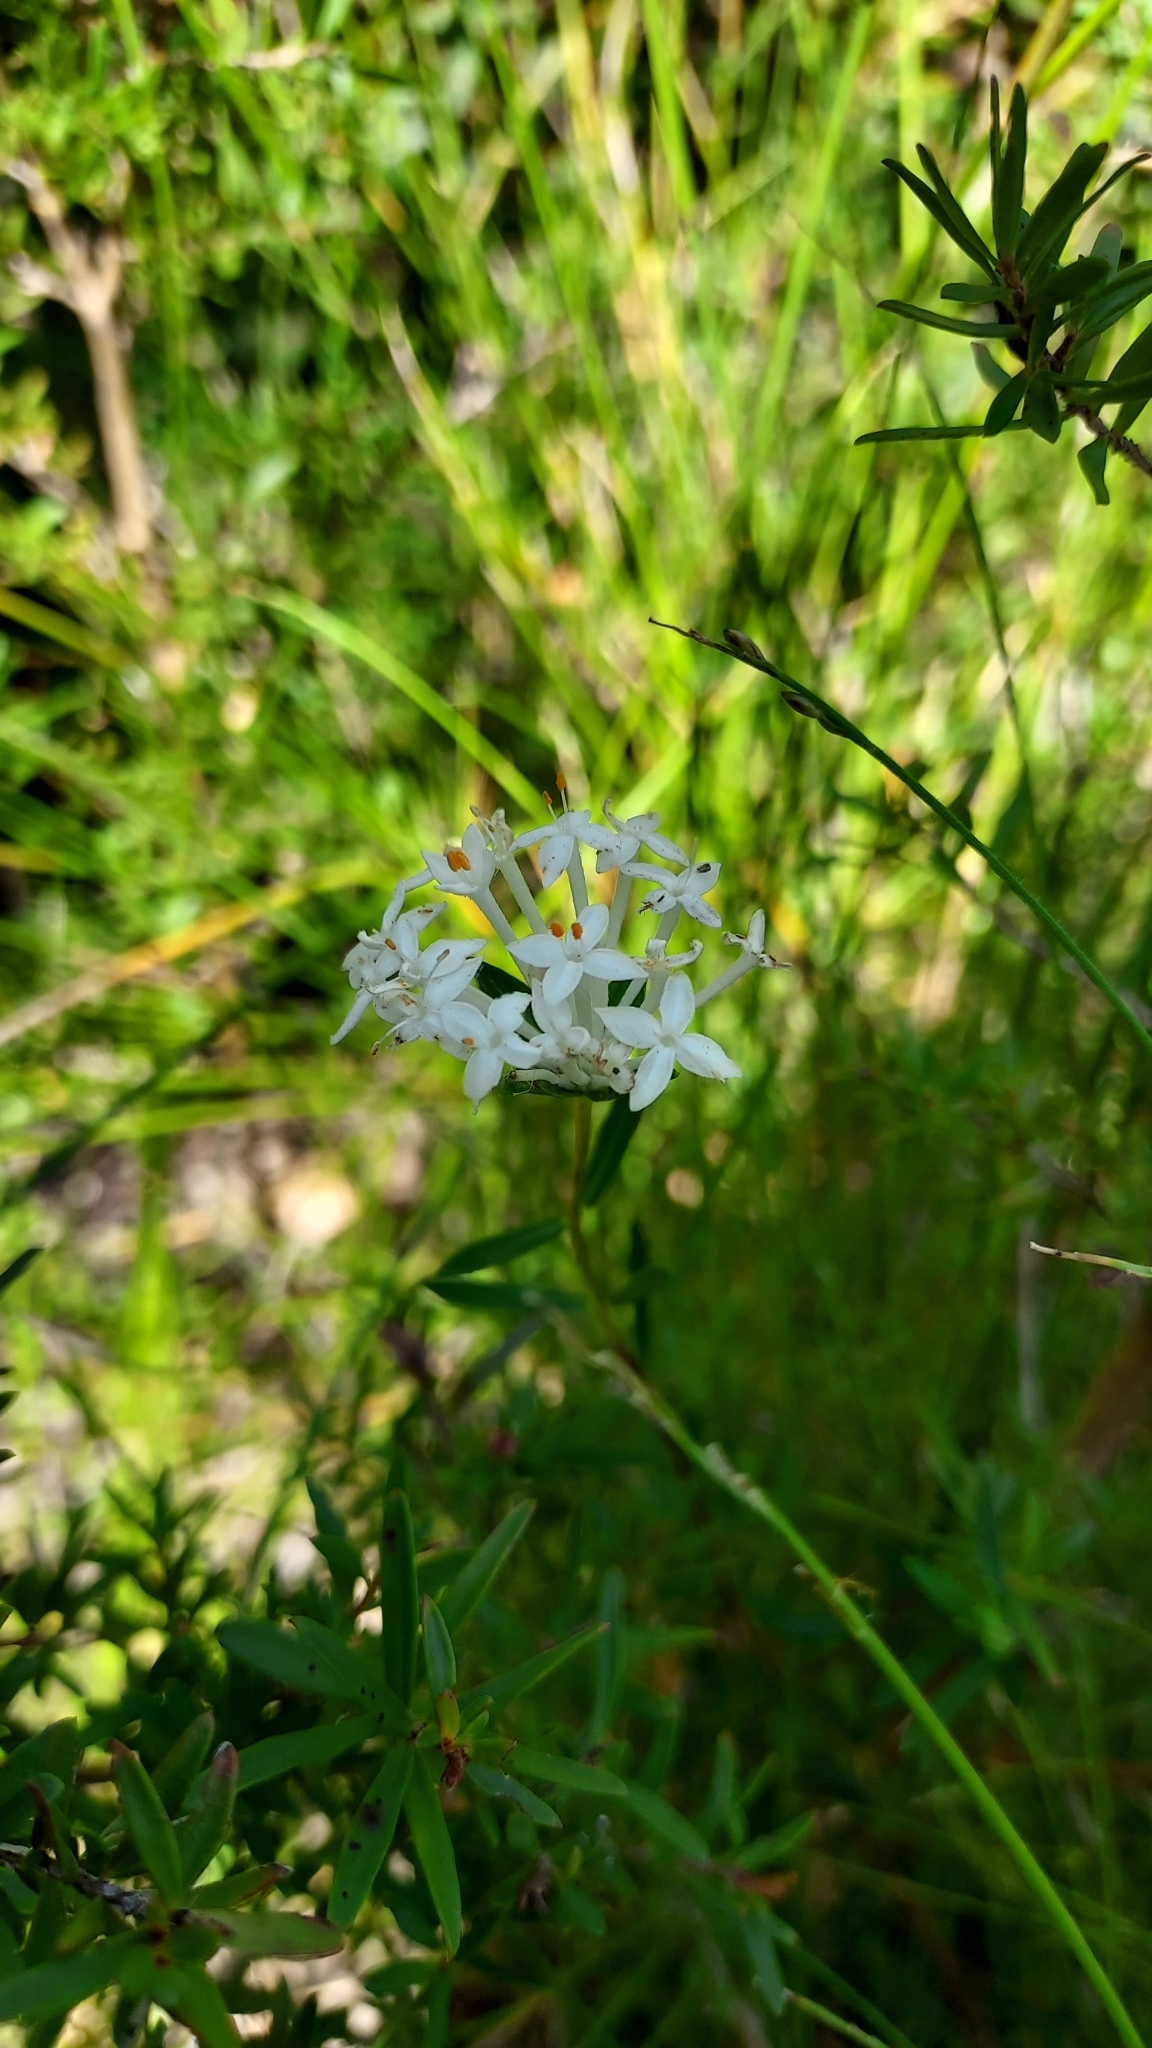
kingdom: Plantae
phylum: Tracheophyta
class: Magnoliopsida
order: Malvales
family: Thymelaeaceae
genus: Pimelea
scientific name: Pimelea linifolia
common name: Queen-of-the-bush
